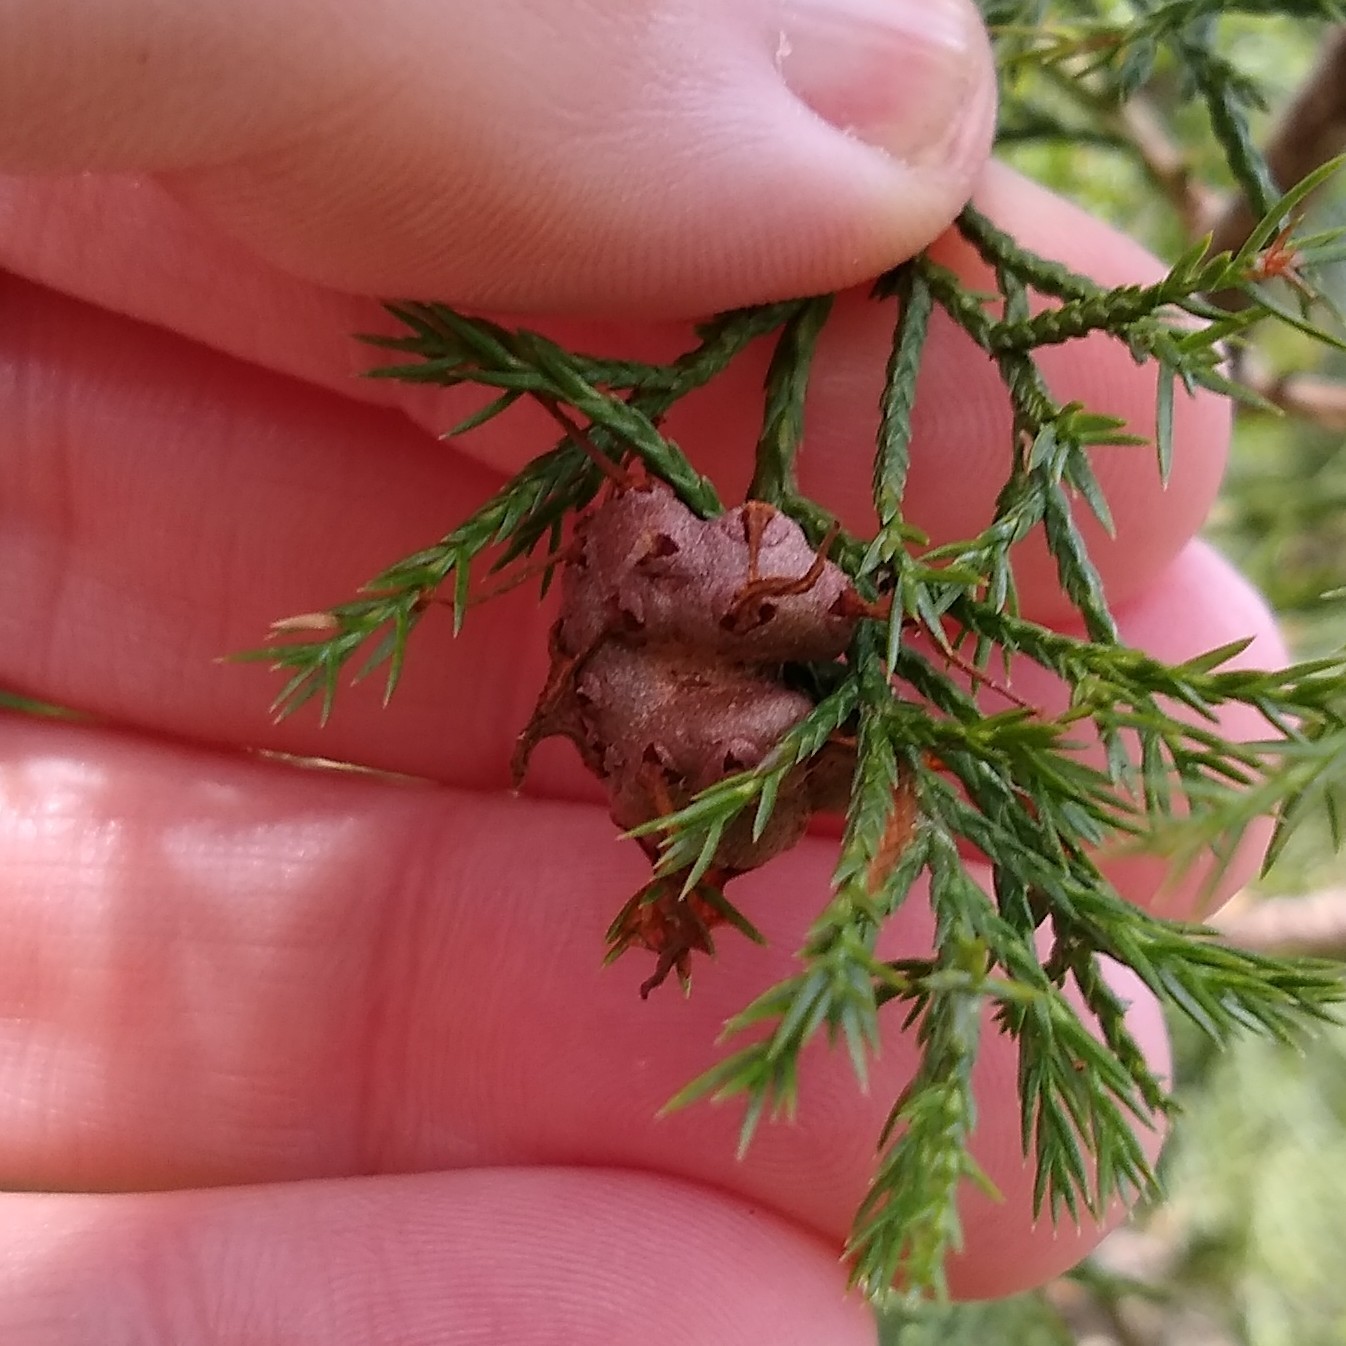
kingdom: Fungi
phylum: Basidiomycota
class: Pucciniomycetes
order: Pucciniales
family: Gymnosporangiaceae
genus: Gymnosporangium
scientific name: Gymnosporangium juniperi-virginianae
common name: Juniper-apple rust
